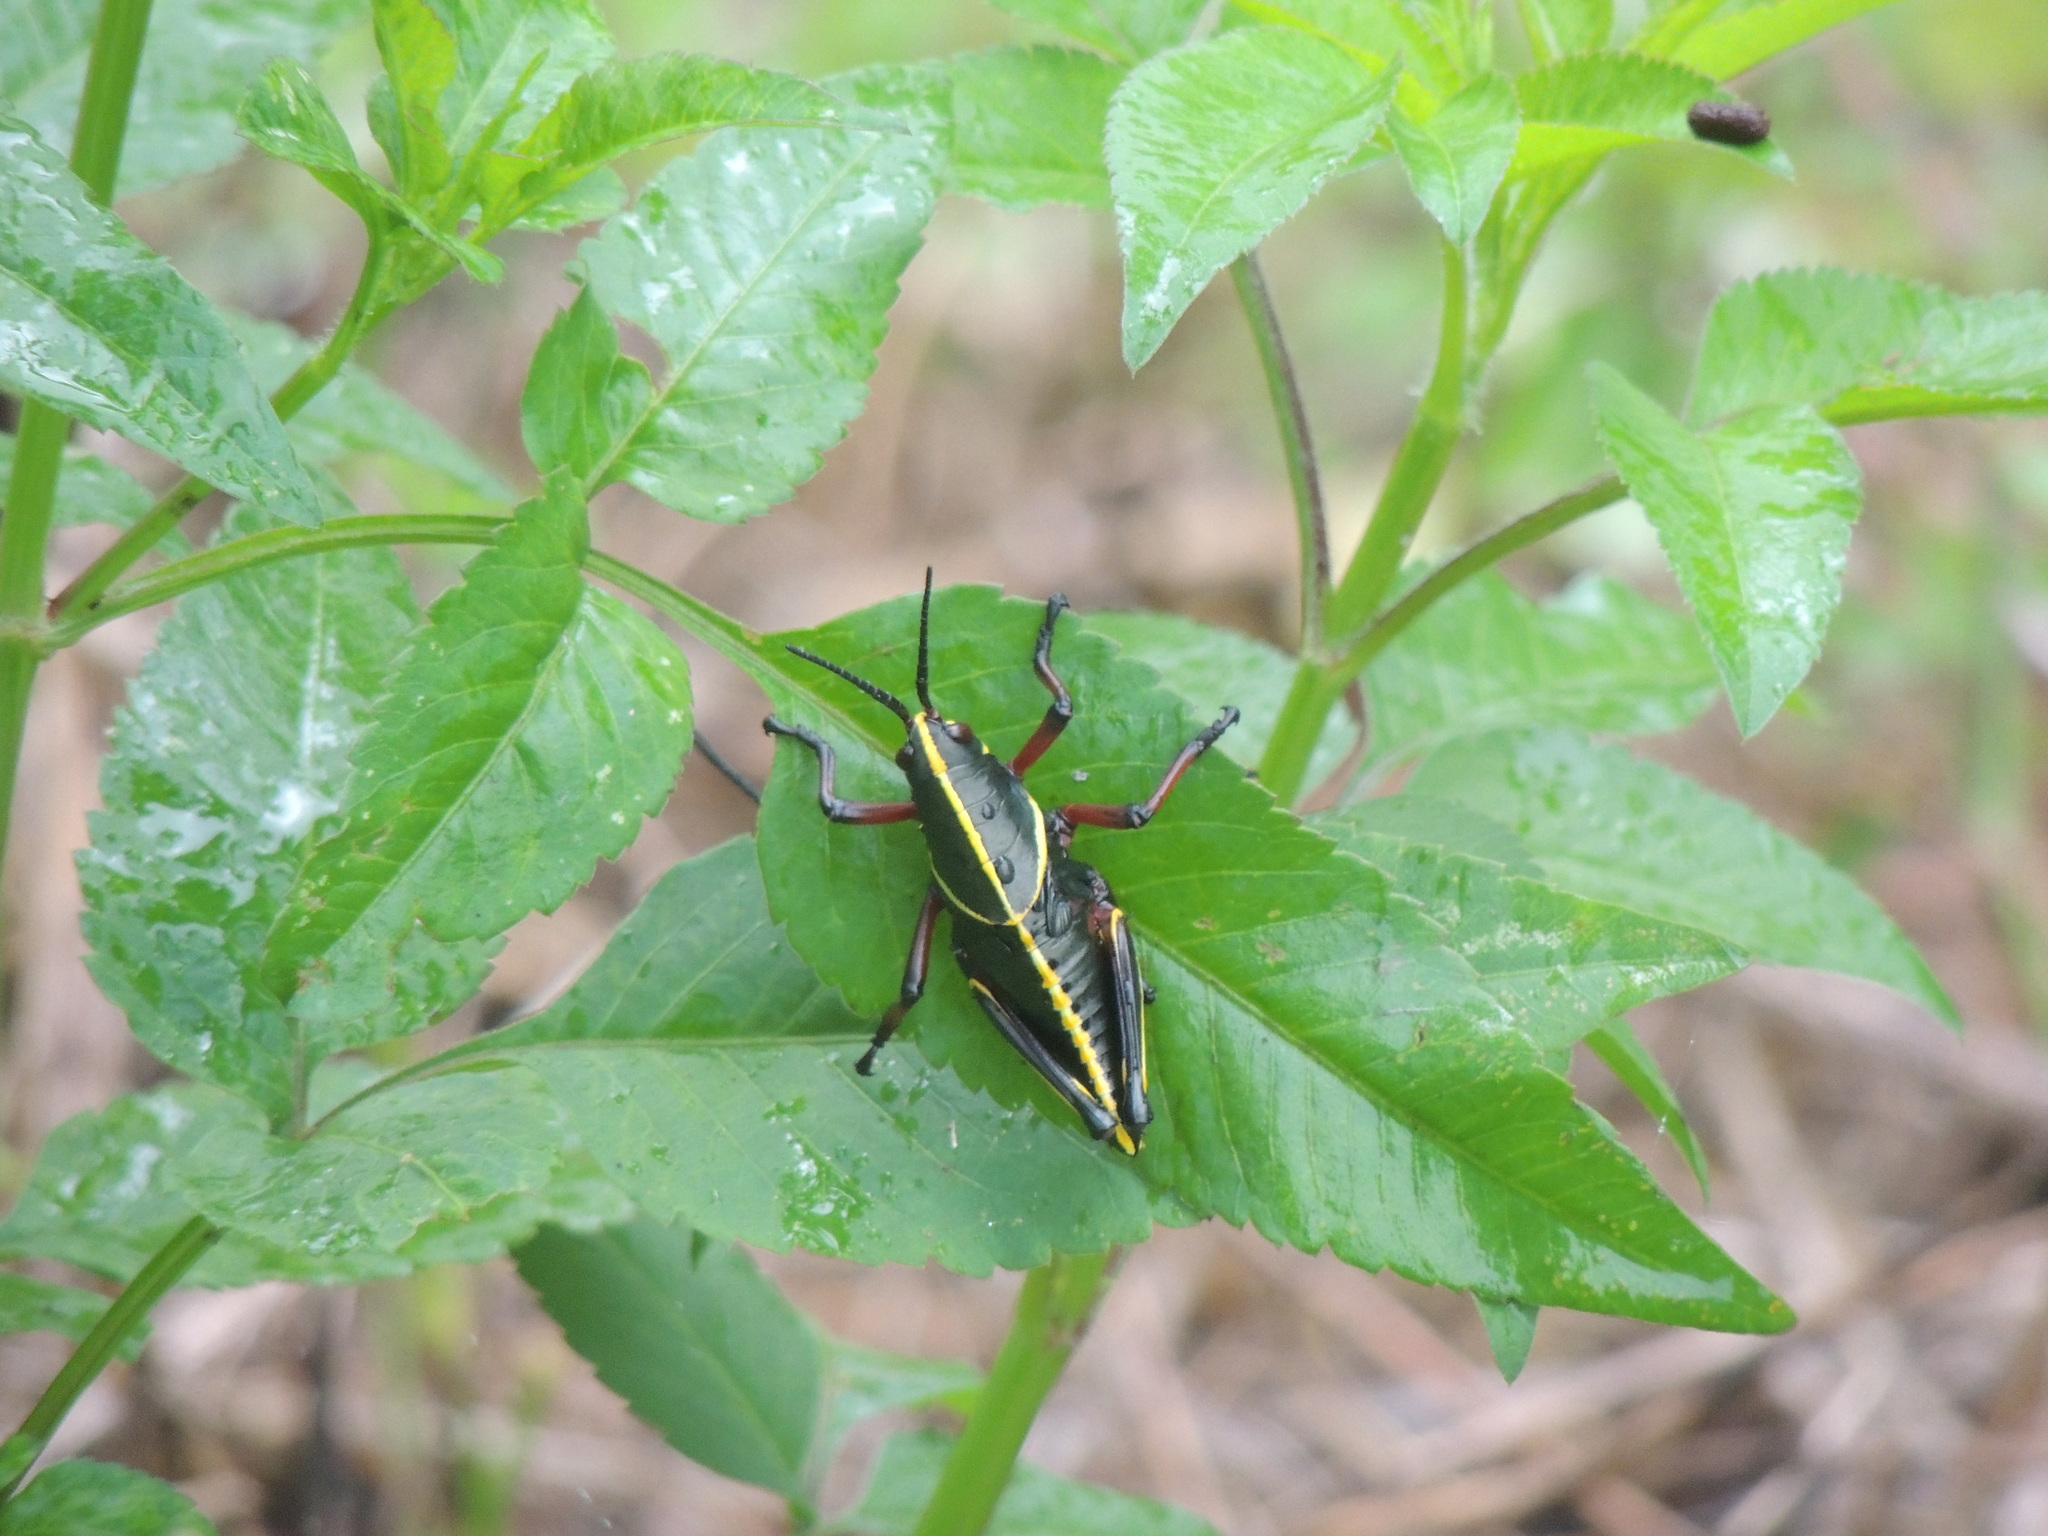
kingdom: Animalia
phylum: Arthropoda
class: Insecta
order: Orthoptera
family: Romaleidae
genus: Romalea
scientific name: Romalea microptera
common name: Eastern lubber grasshopper
